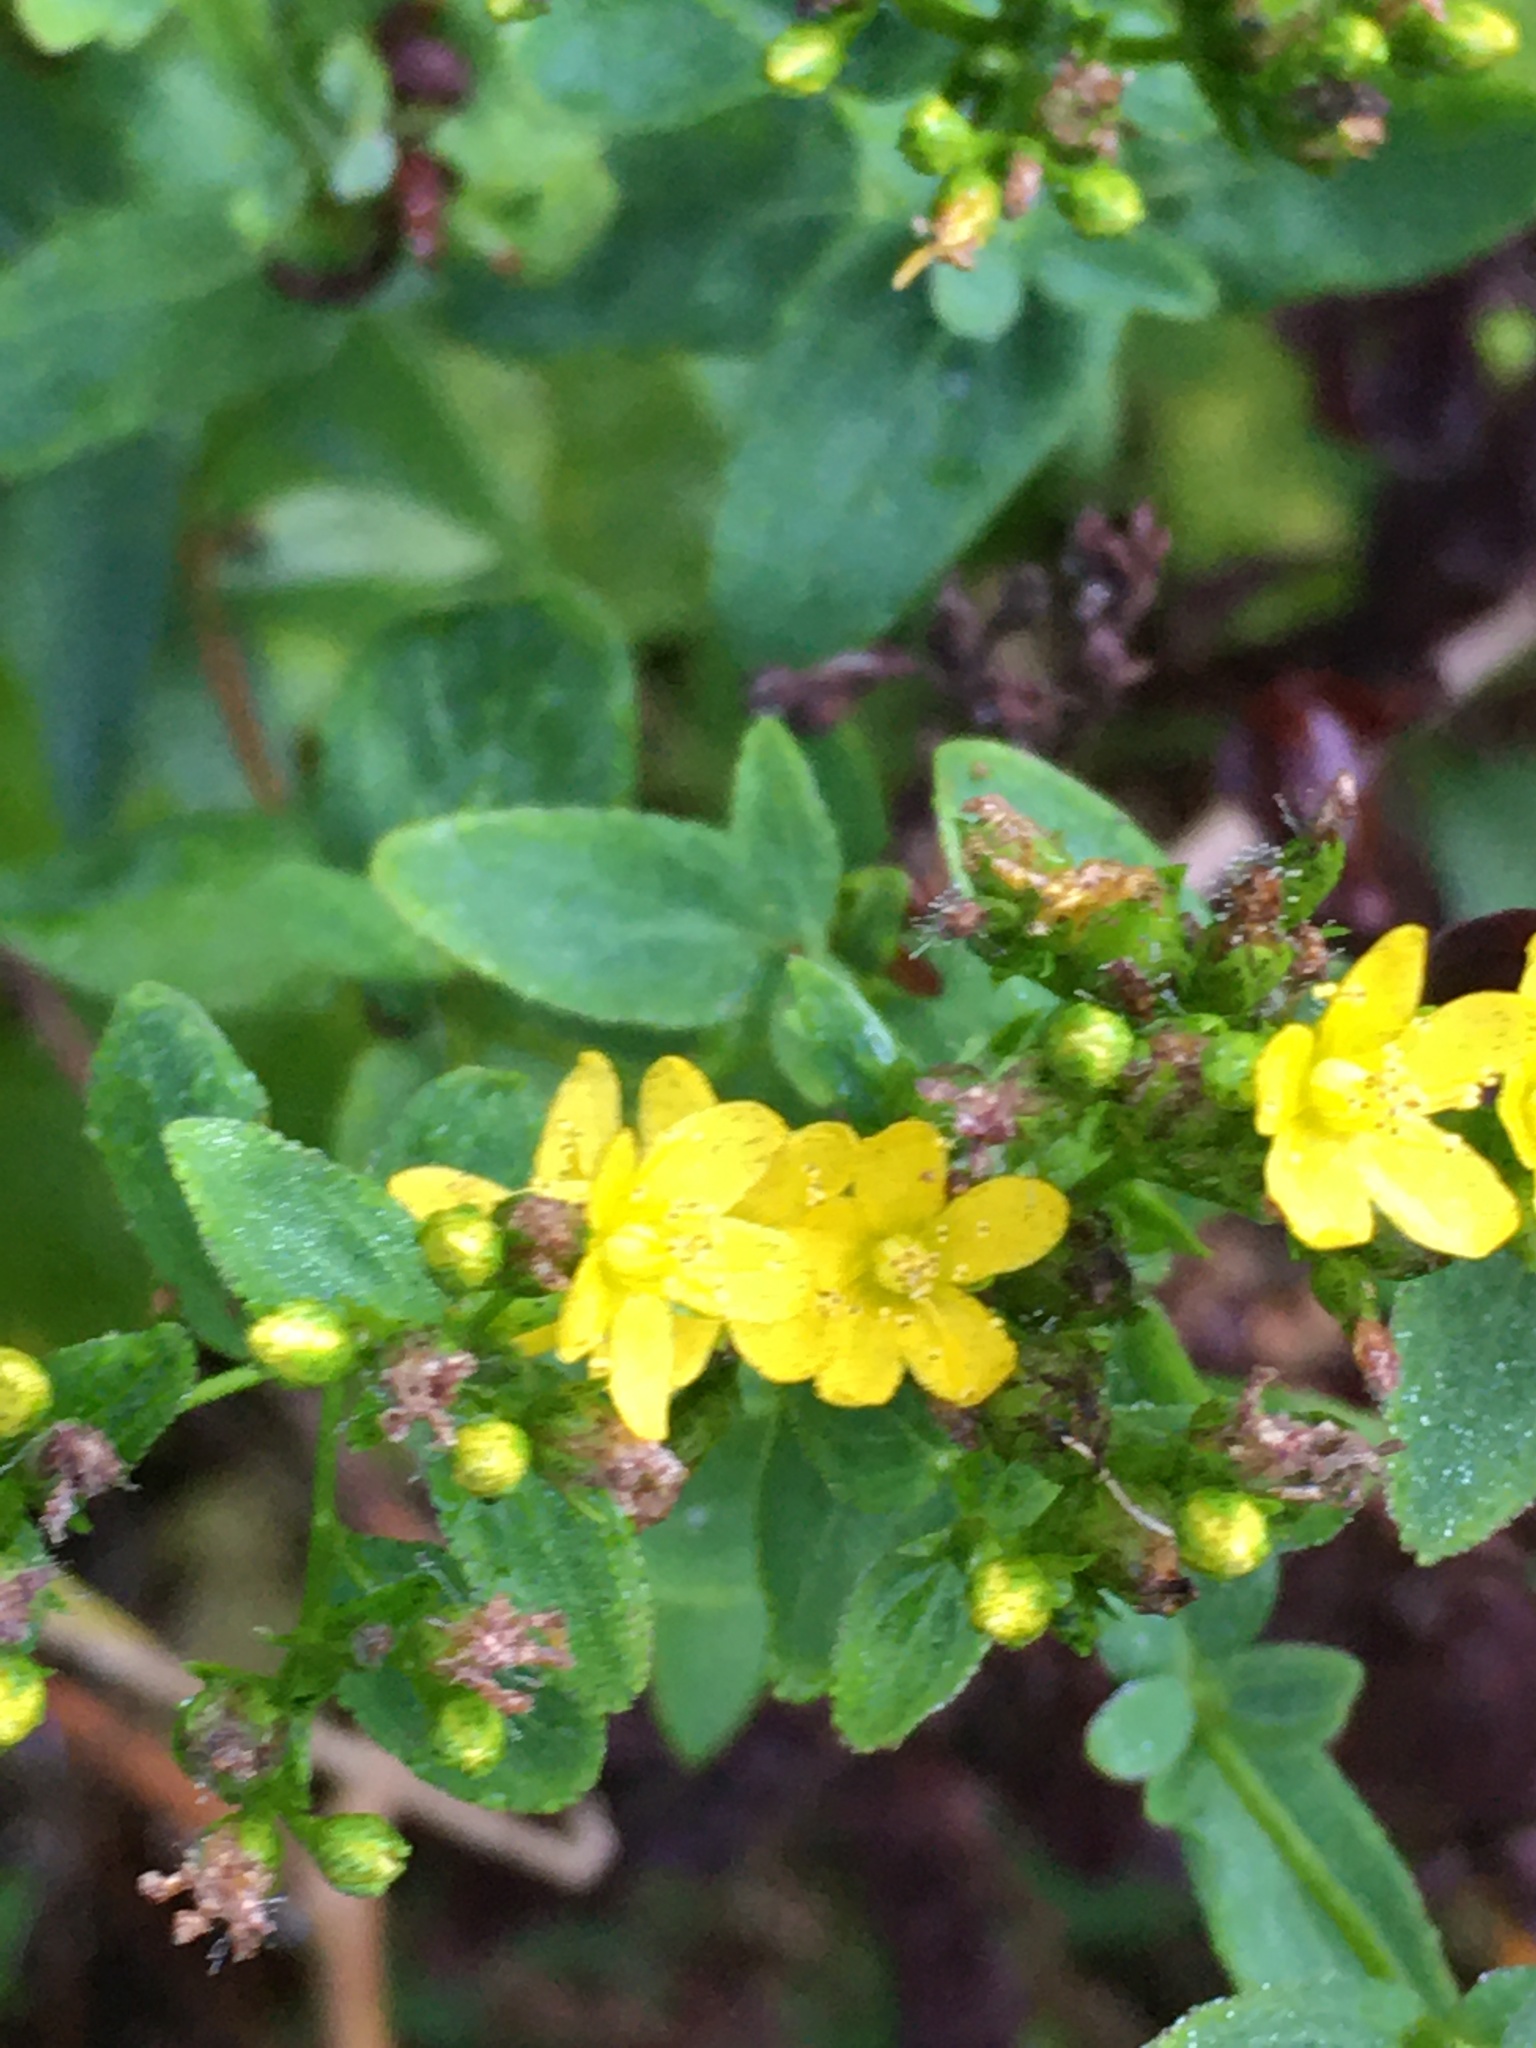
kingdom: Plantae
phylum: Tracheophyta
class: Magnoliopsida
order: Malpighiales
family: Hypericaceae
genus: Hypericum
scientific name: Hypericum punctatum
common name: Spotted st. john's-wort
